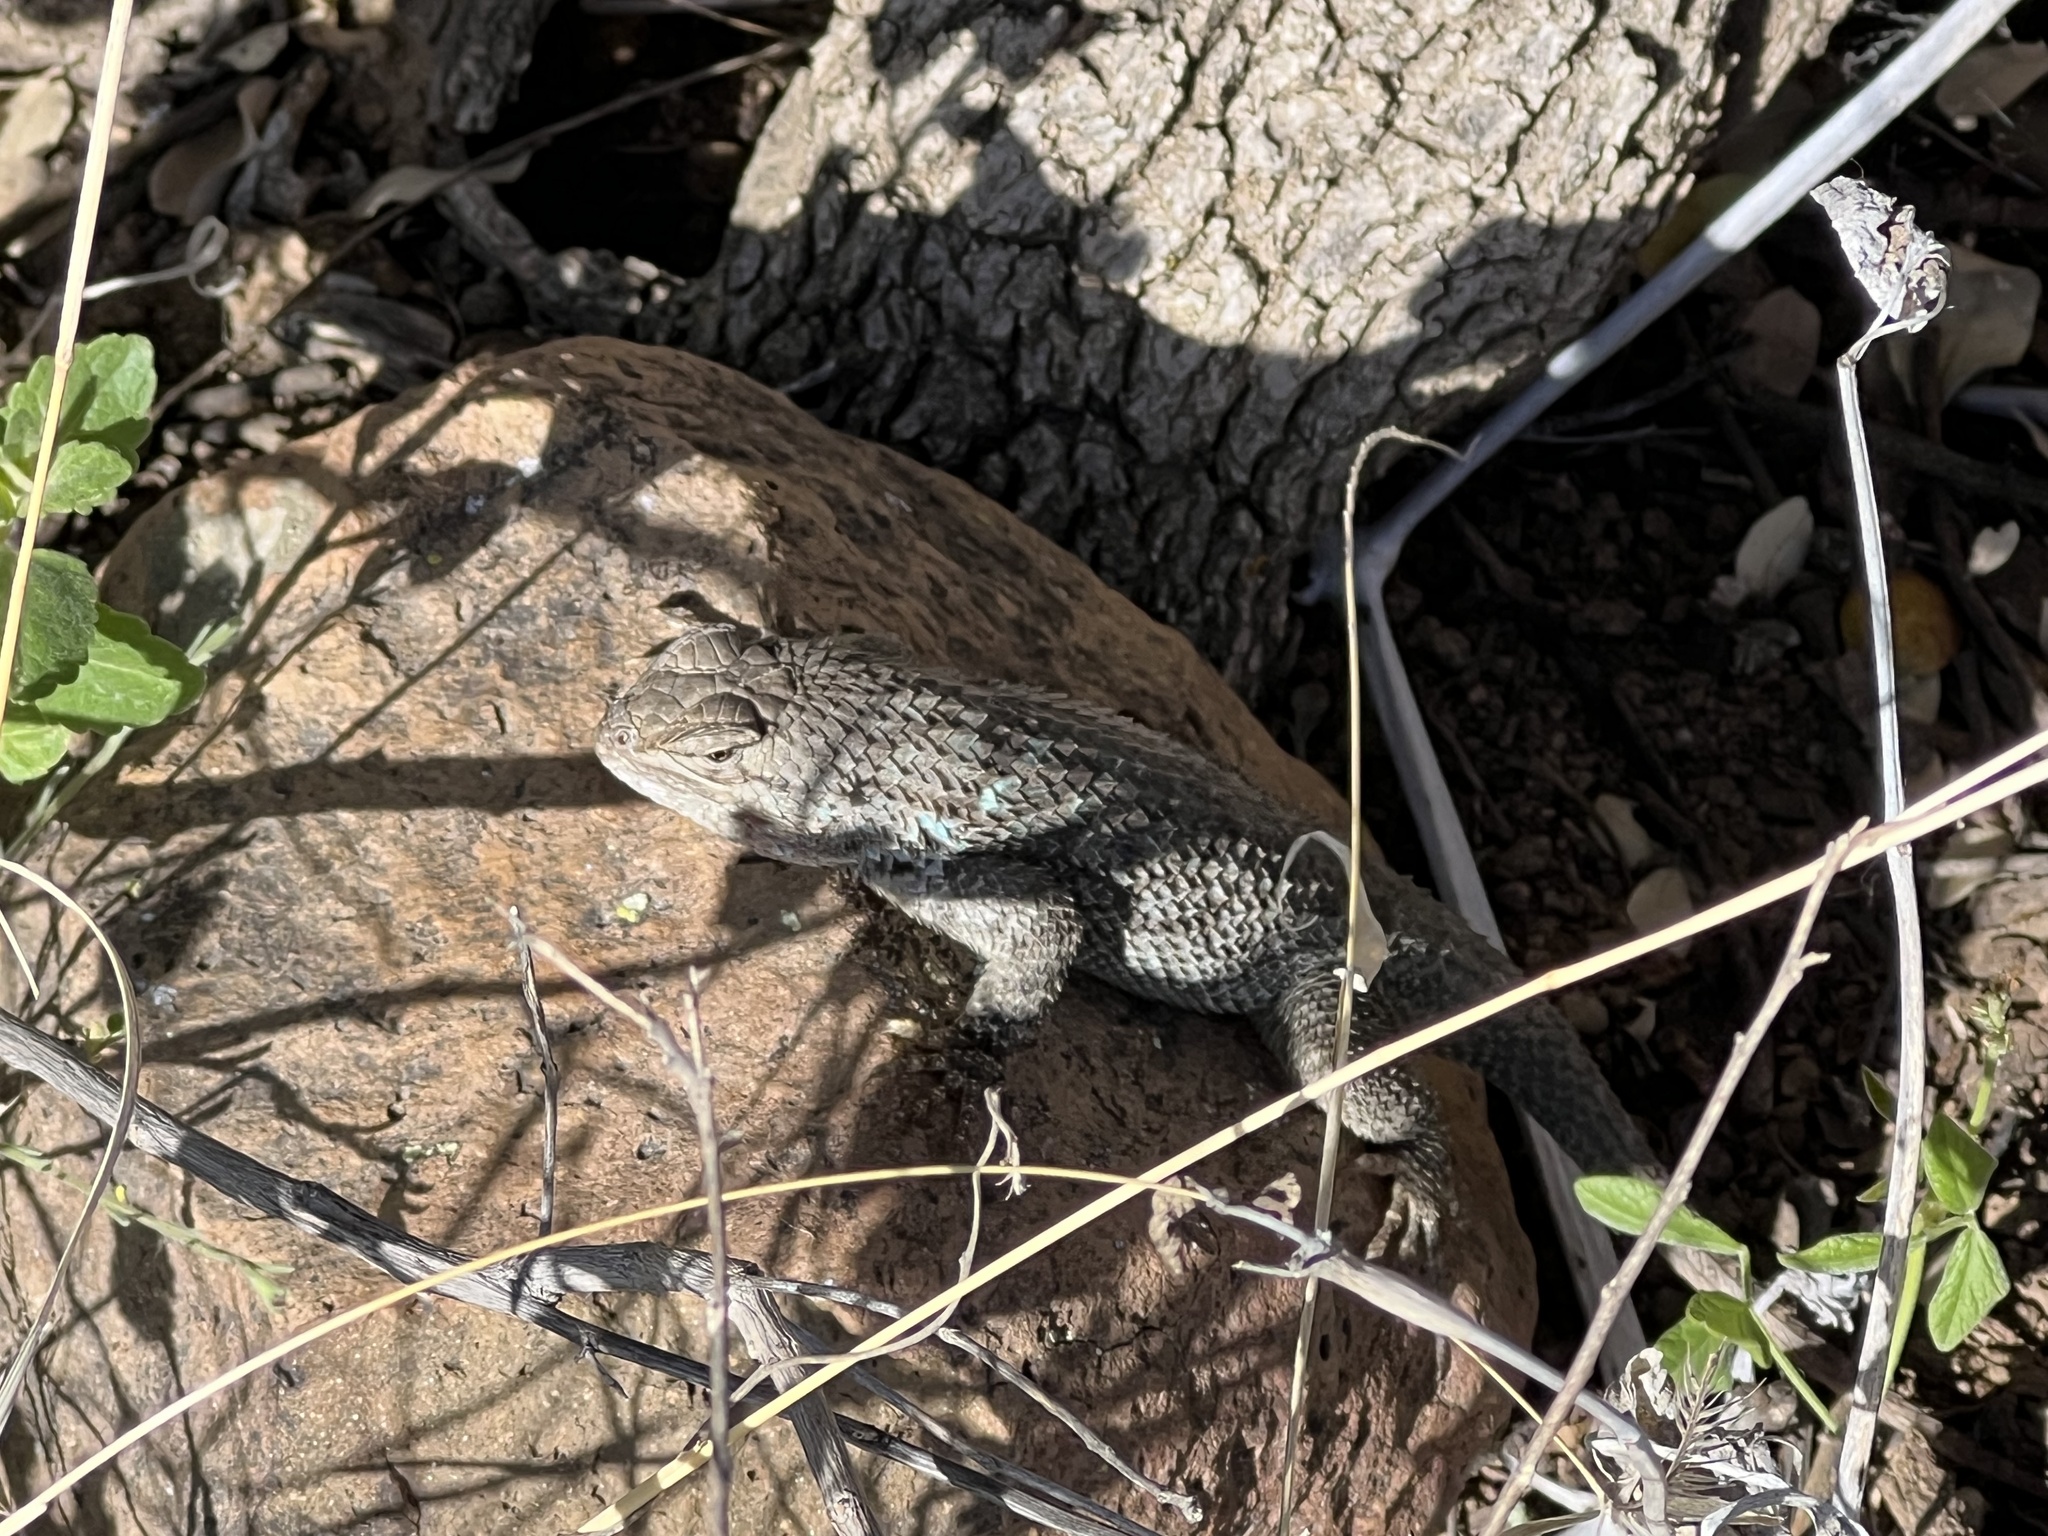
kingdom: Animalia
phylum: Chordata
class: Squamata
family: Phrynosomatidae
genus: Sceloporus
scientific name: Sceloporus clarkii
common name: Clark's spiny lizard
